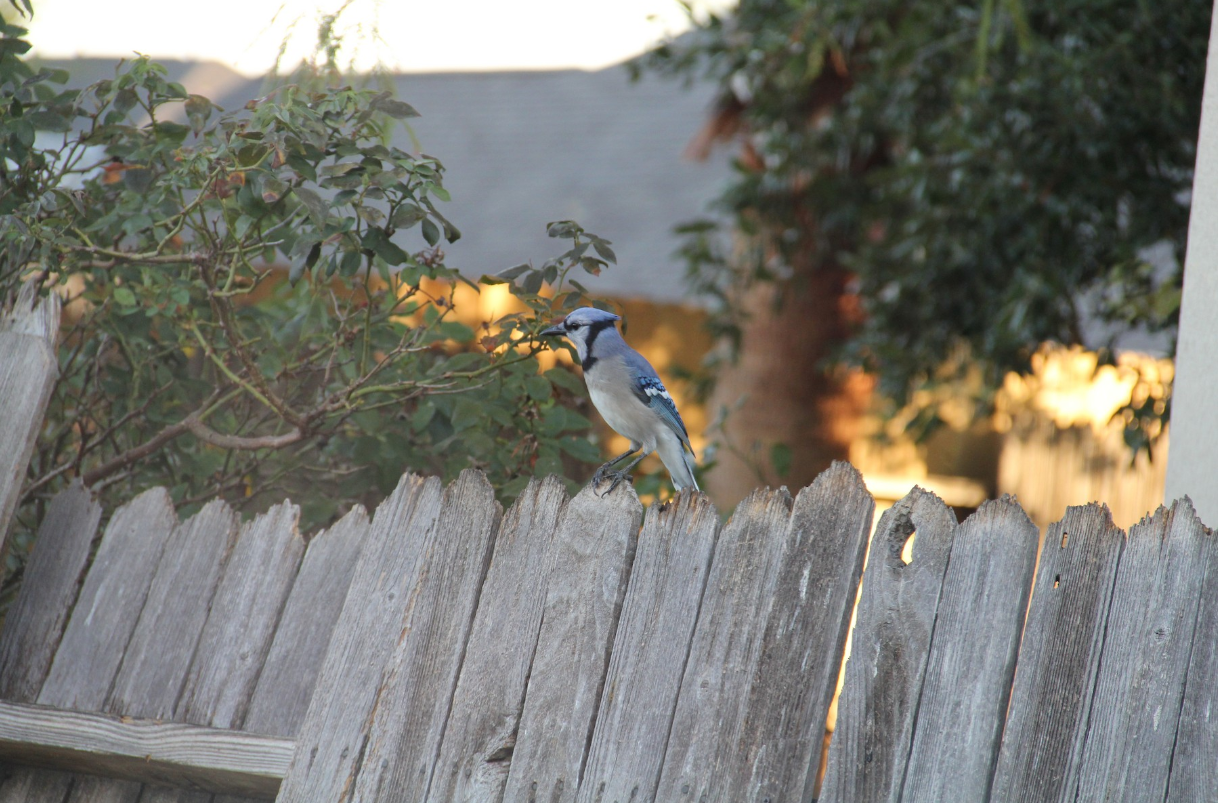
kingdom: Animalia
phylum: Chordata
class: Aves
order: Passeriformes
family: Corvidae
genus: Cyanocitta
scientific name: Cyanocitta cristata
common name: Blue jay
